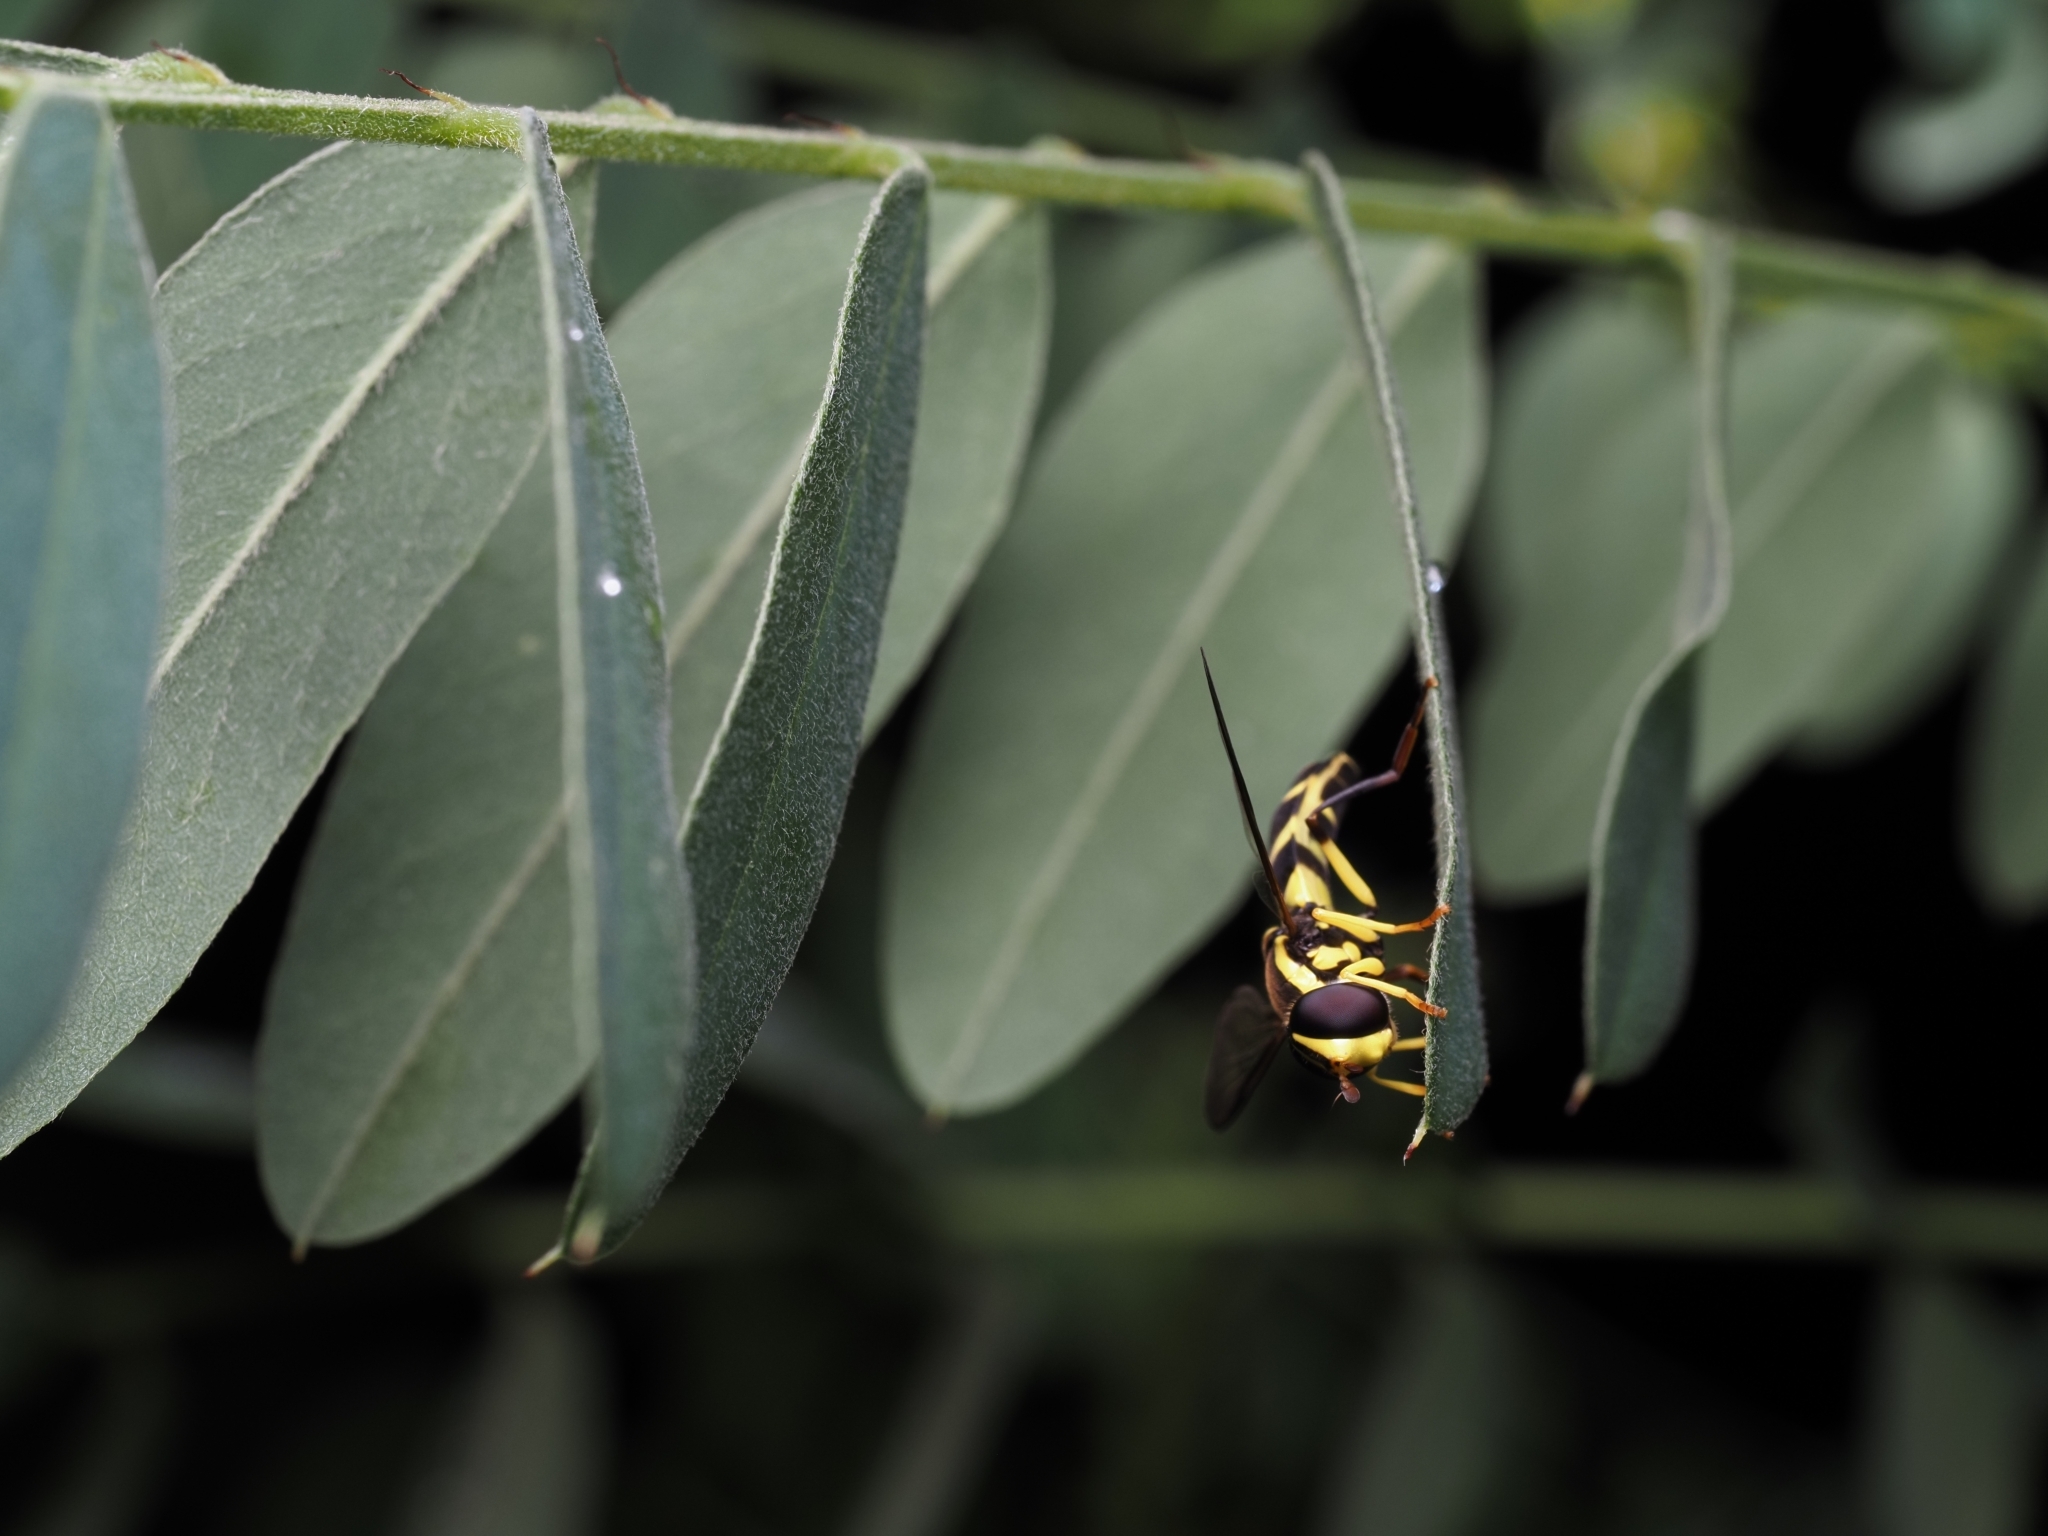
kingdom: Animalia
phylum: Arthropoda
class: Insecta
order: Diptera
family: Syrphidae
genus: Philhelius
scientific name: Philhelius dives
